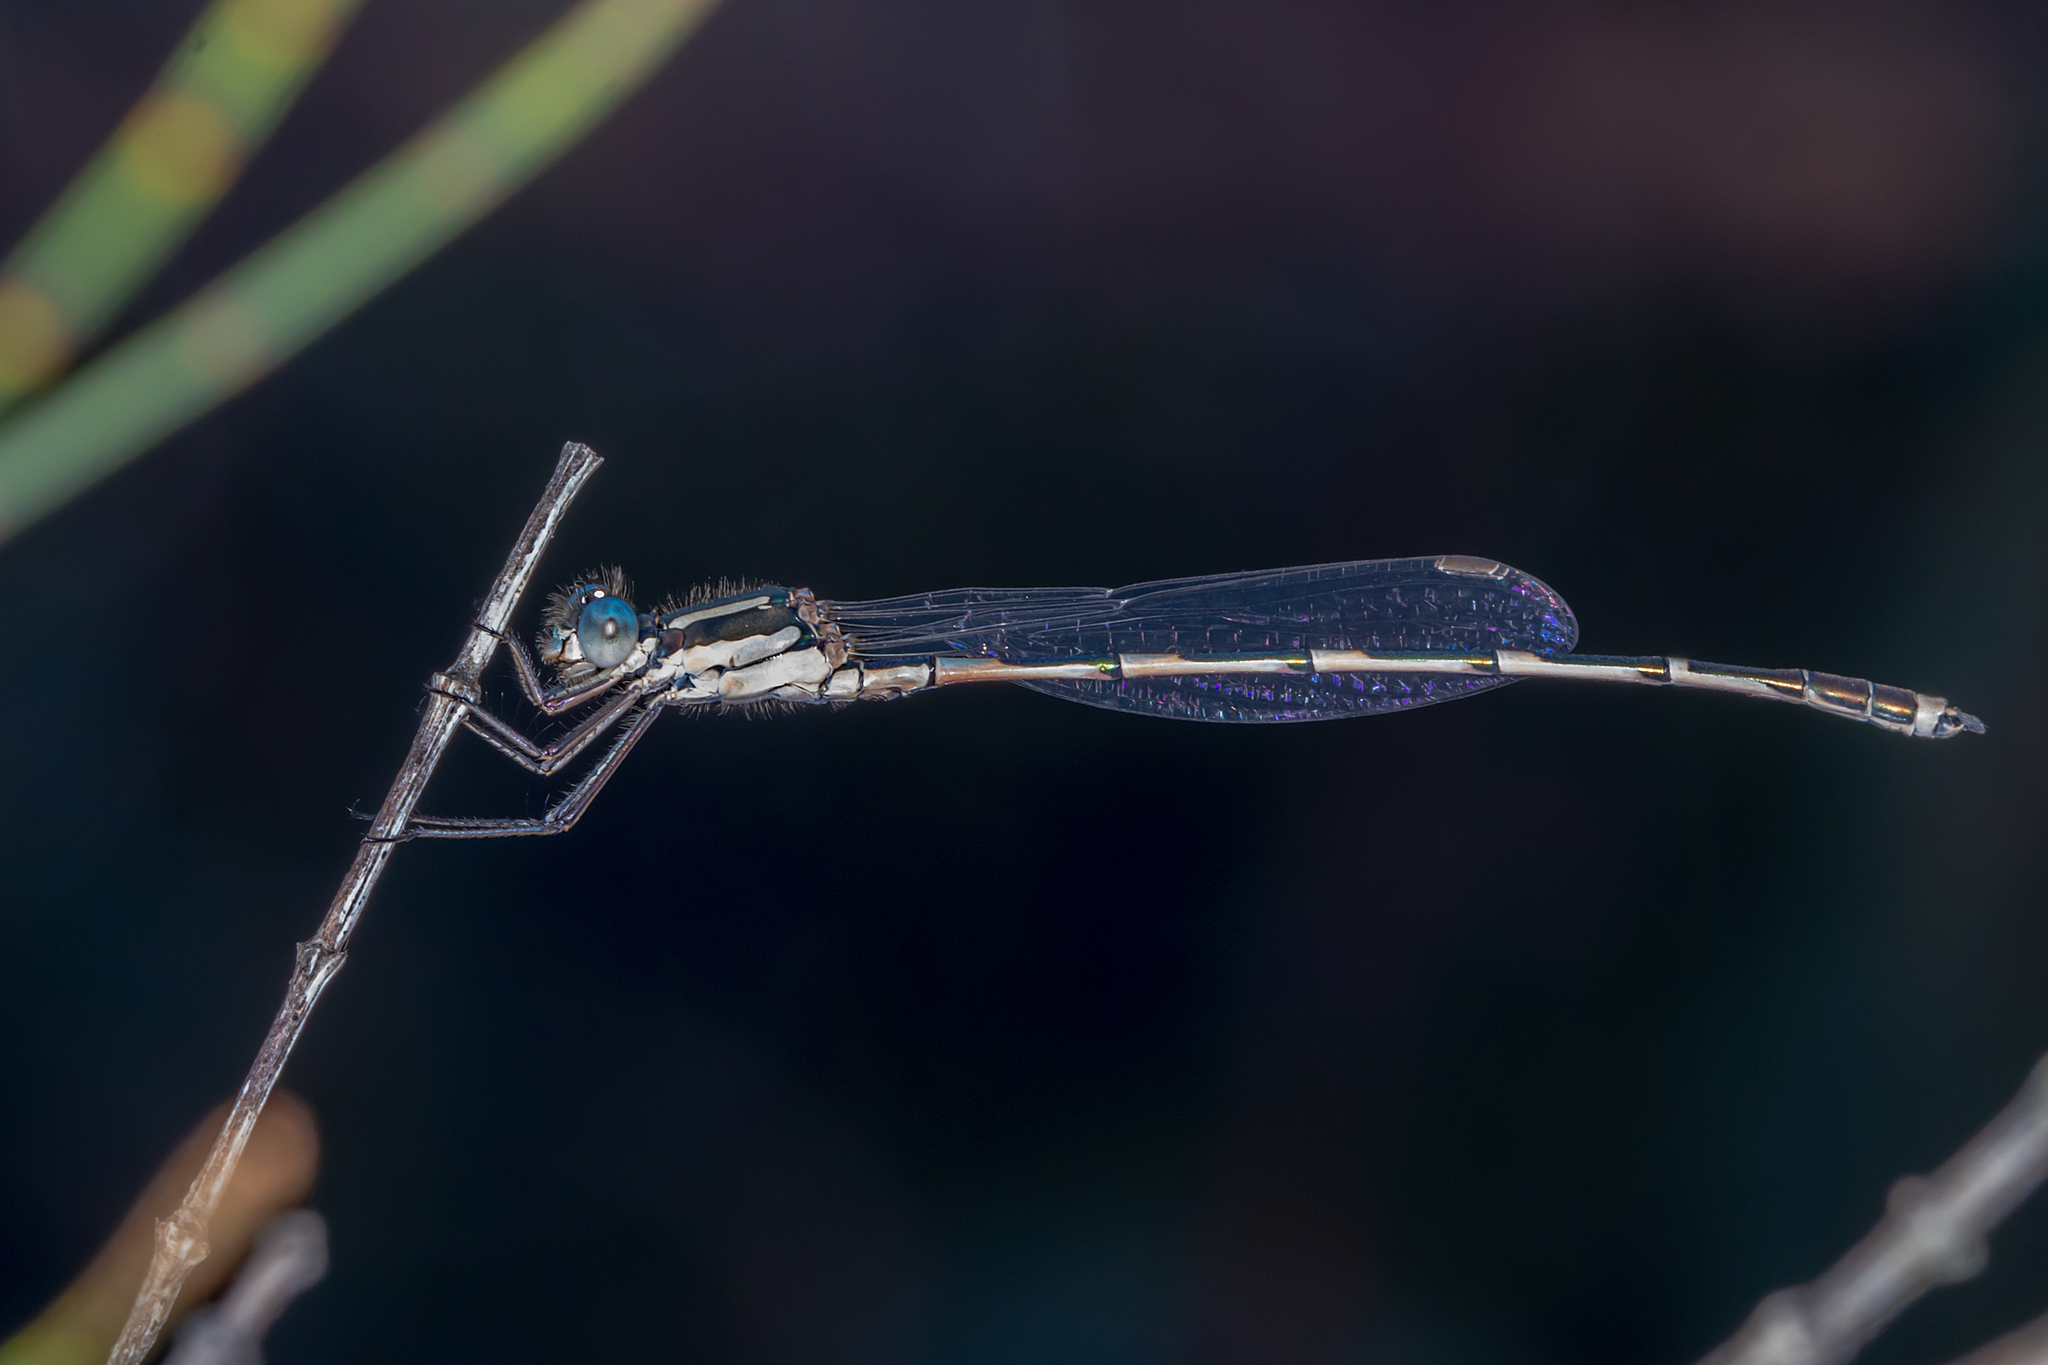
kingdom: Animalia
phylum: Arthropoda
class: Insecta
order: Odonata
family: Lestidae
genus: Austrolestes
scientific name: Austrolestes leda
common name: Wandering ringtail
